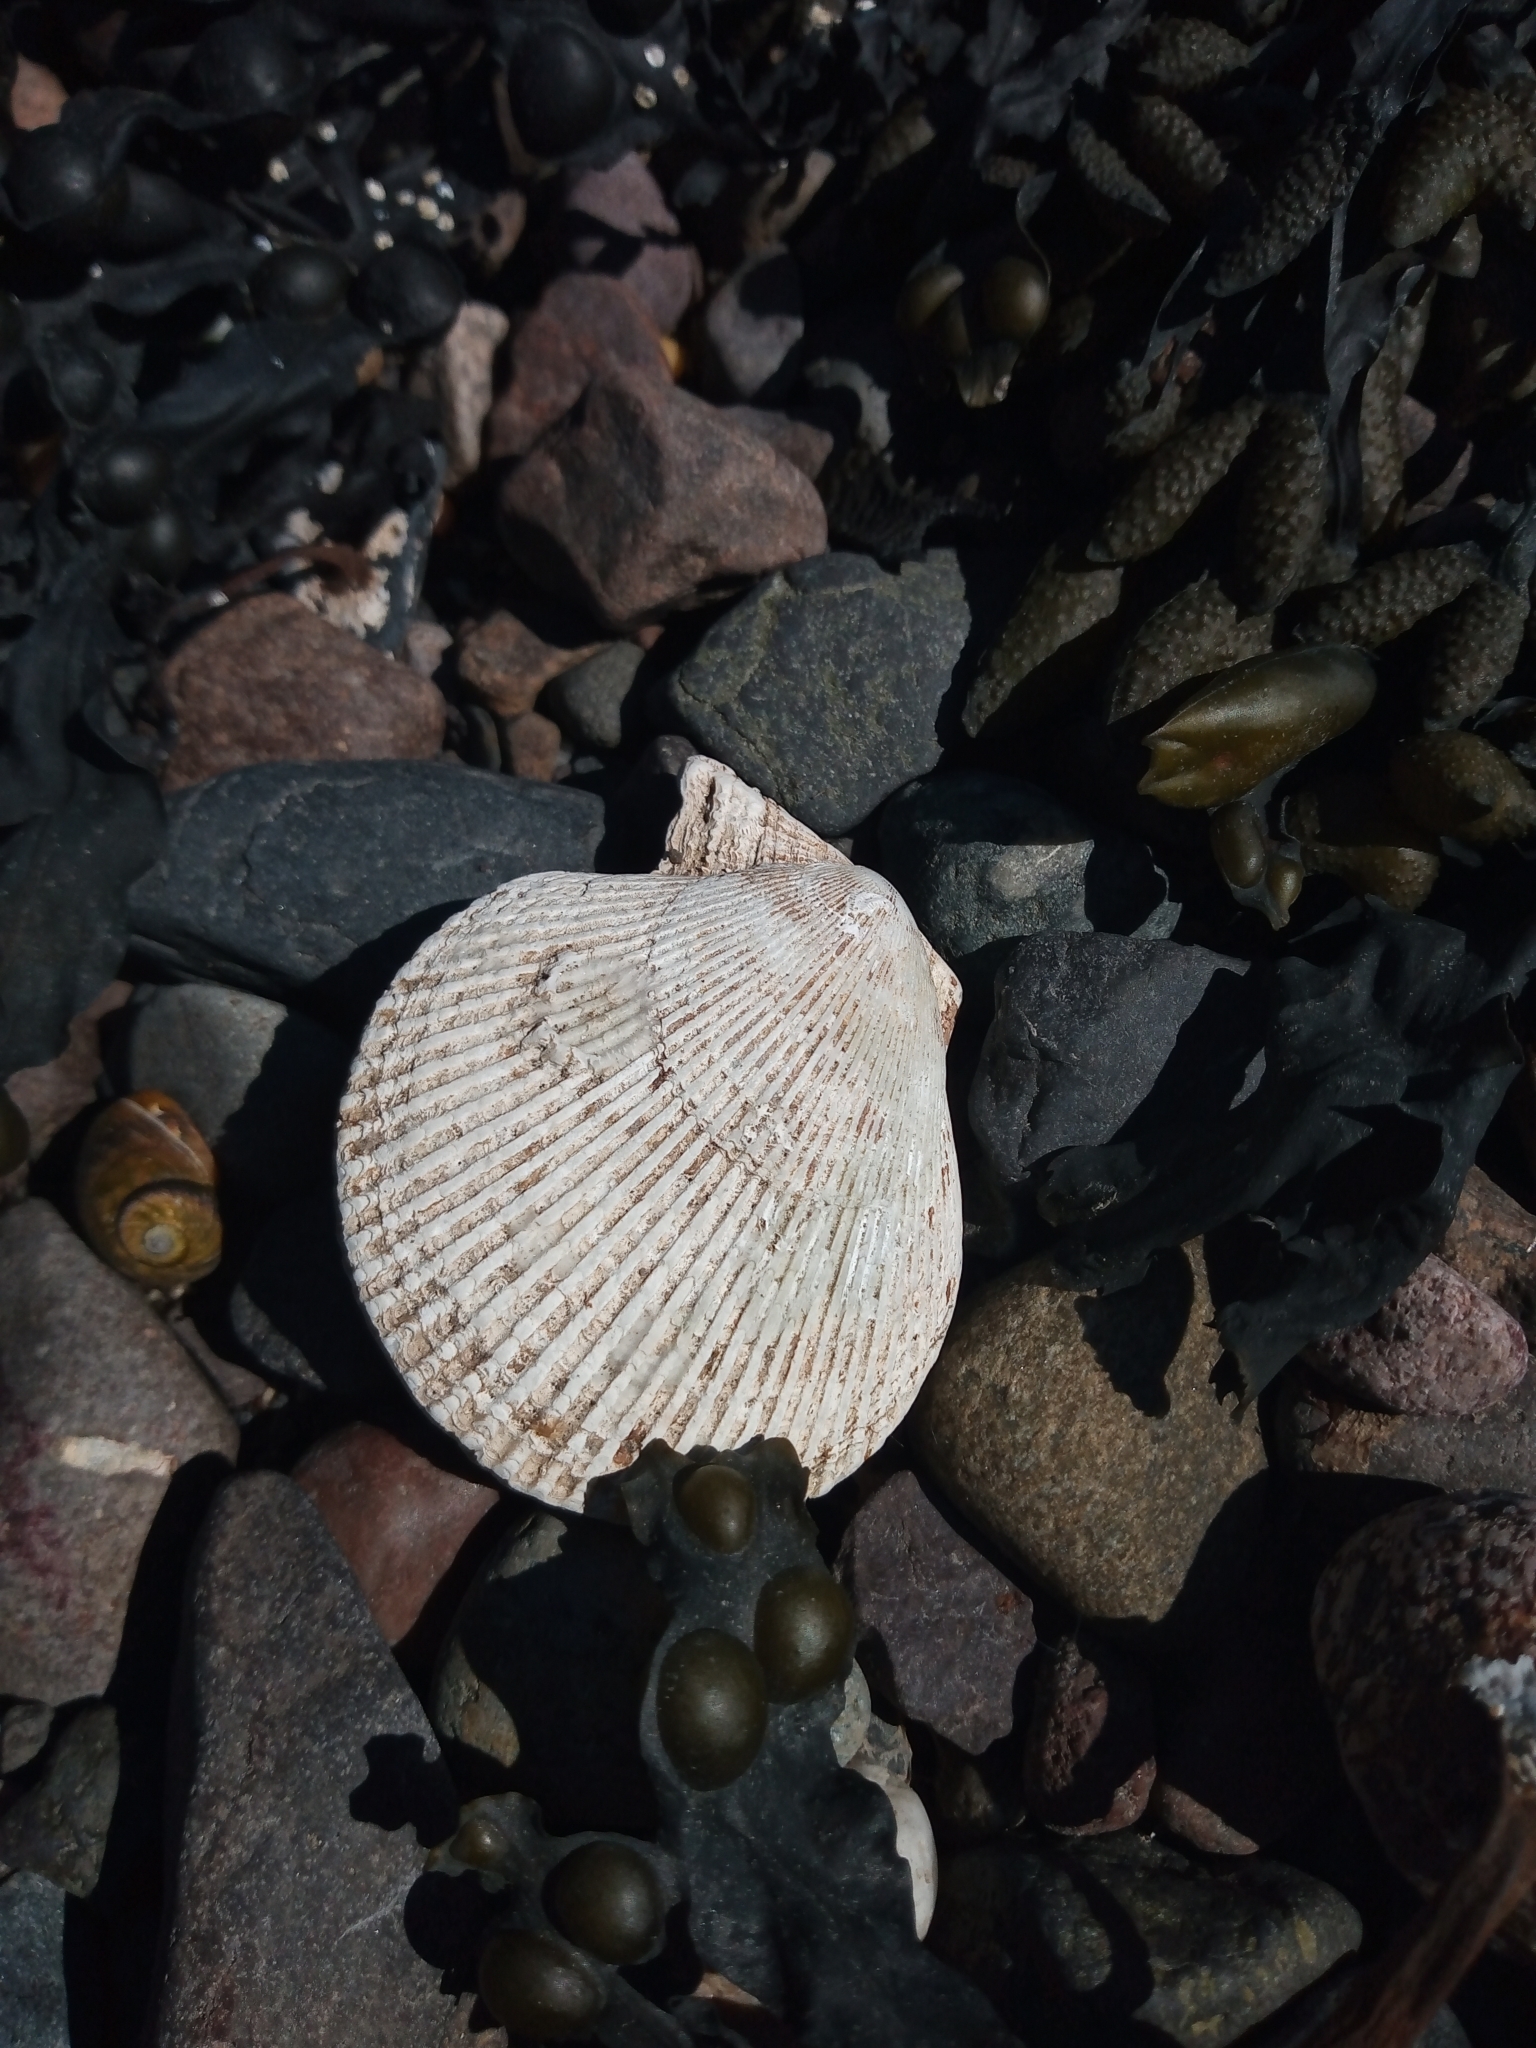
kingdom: Animalia
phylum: Mollusca
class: Bivalvia
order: Pectinida
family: Pectinidae
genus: Mimachlamys
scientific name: Mimachlamys varia
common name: Variegated scallop
